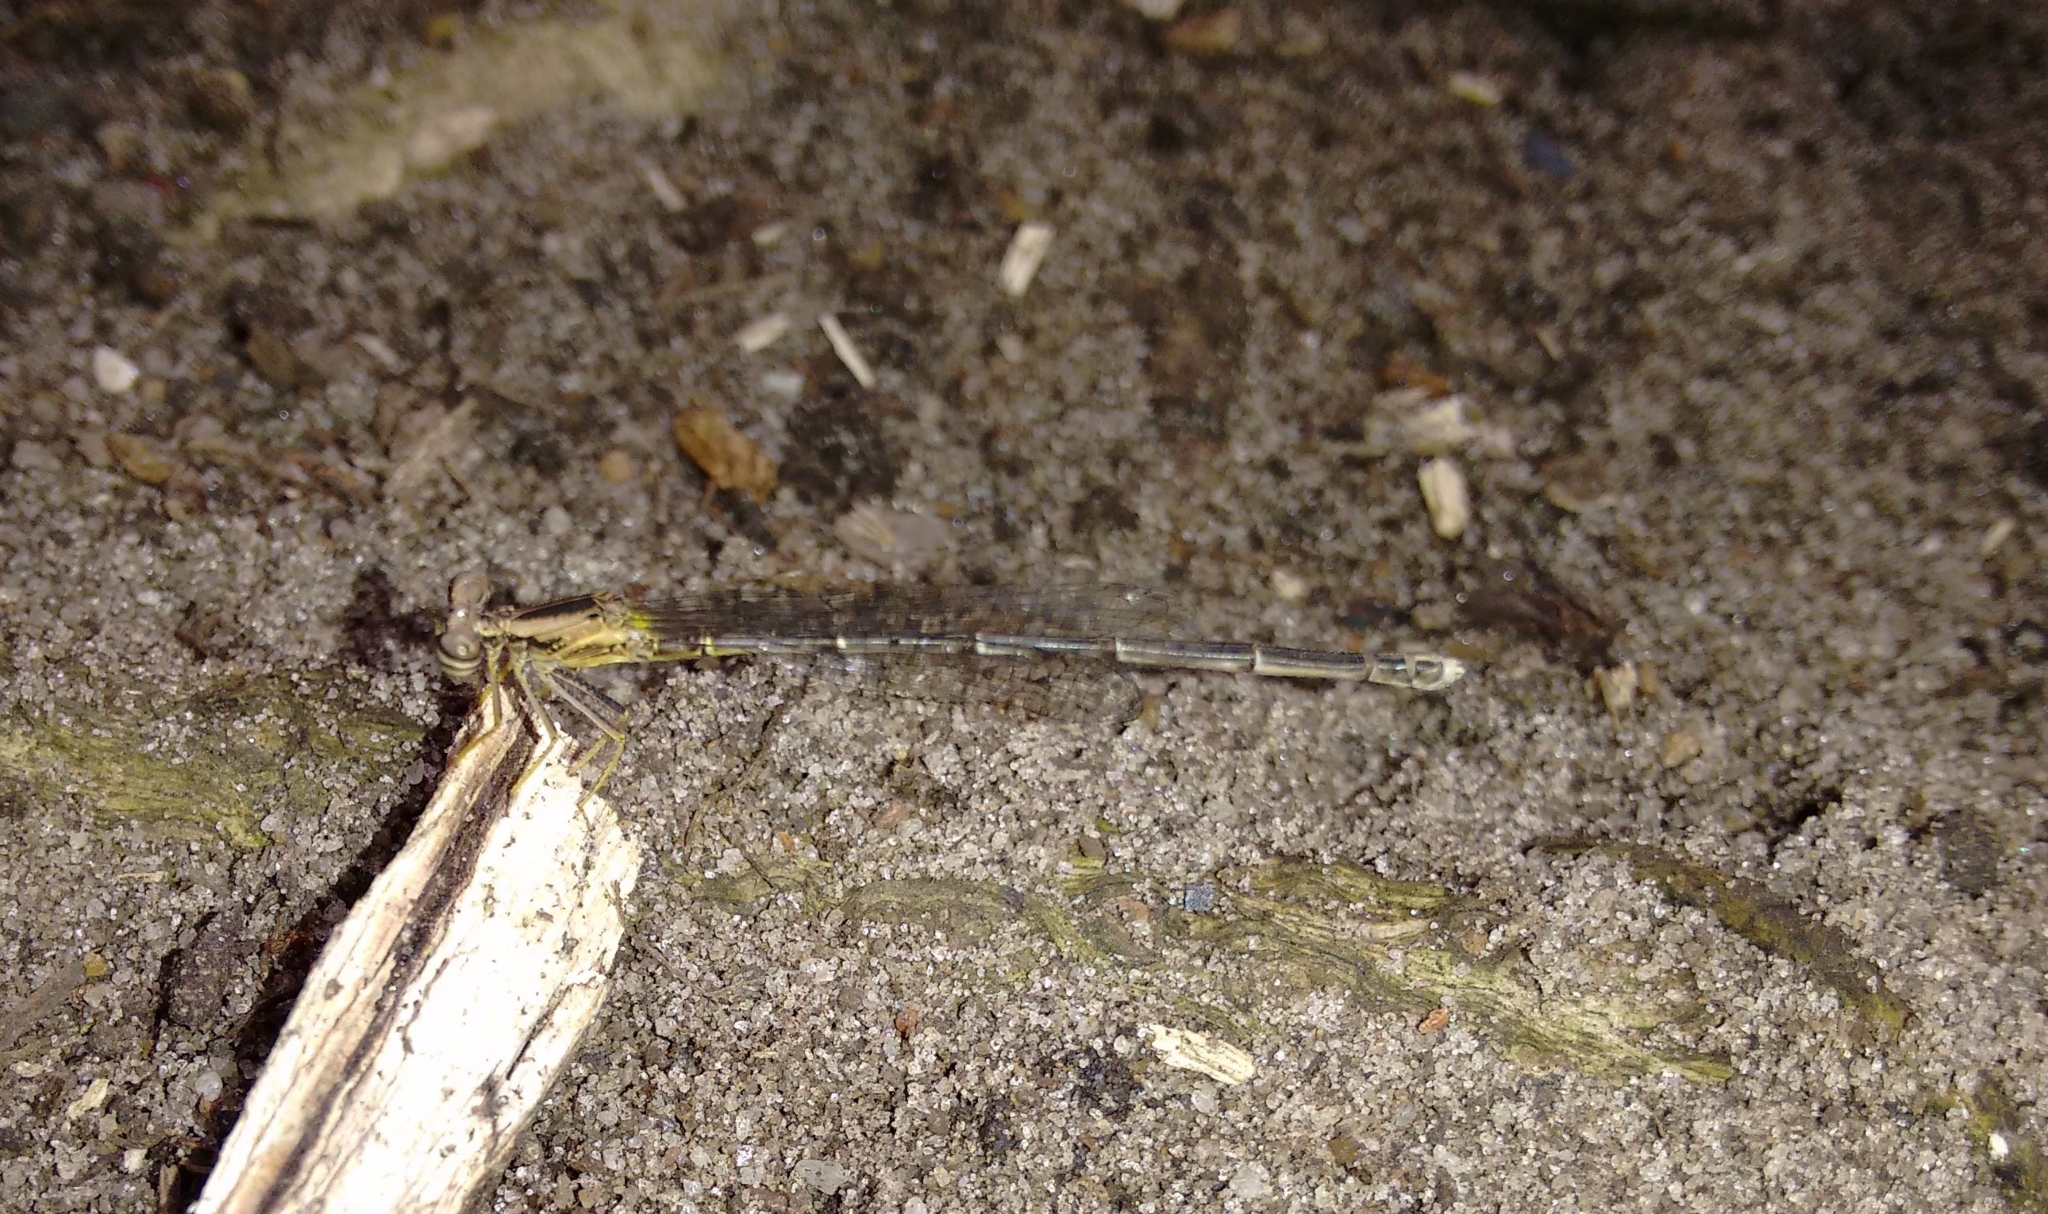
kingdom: Animalia
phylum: Arthropoda
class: Insecta
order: Odonata
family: Platycnemididae
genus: Copera
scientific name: Copera marginipes
